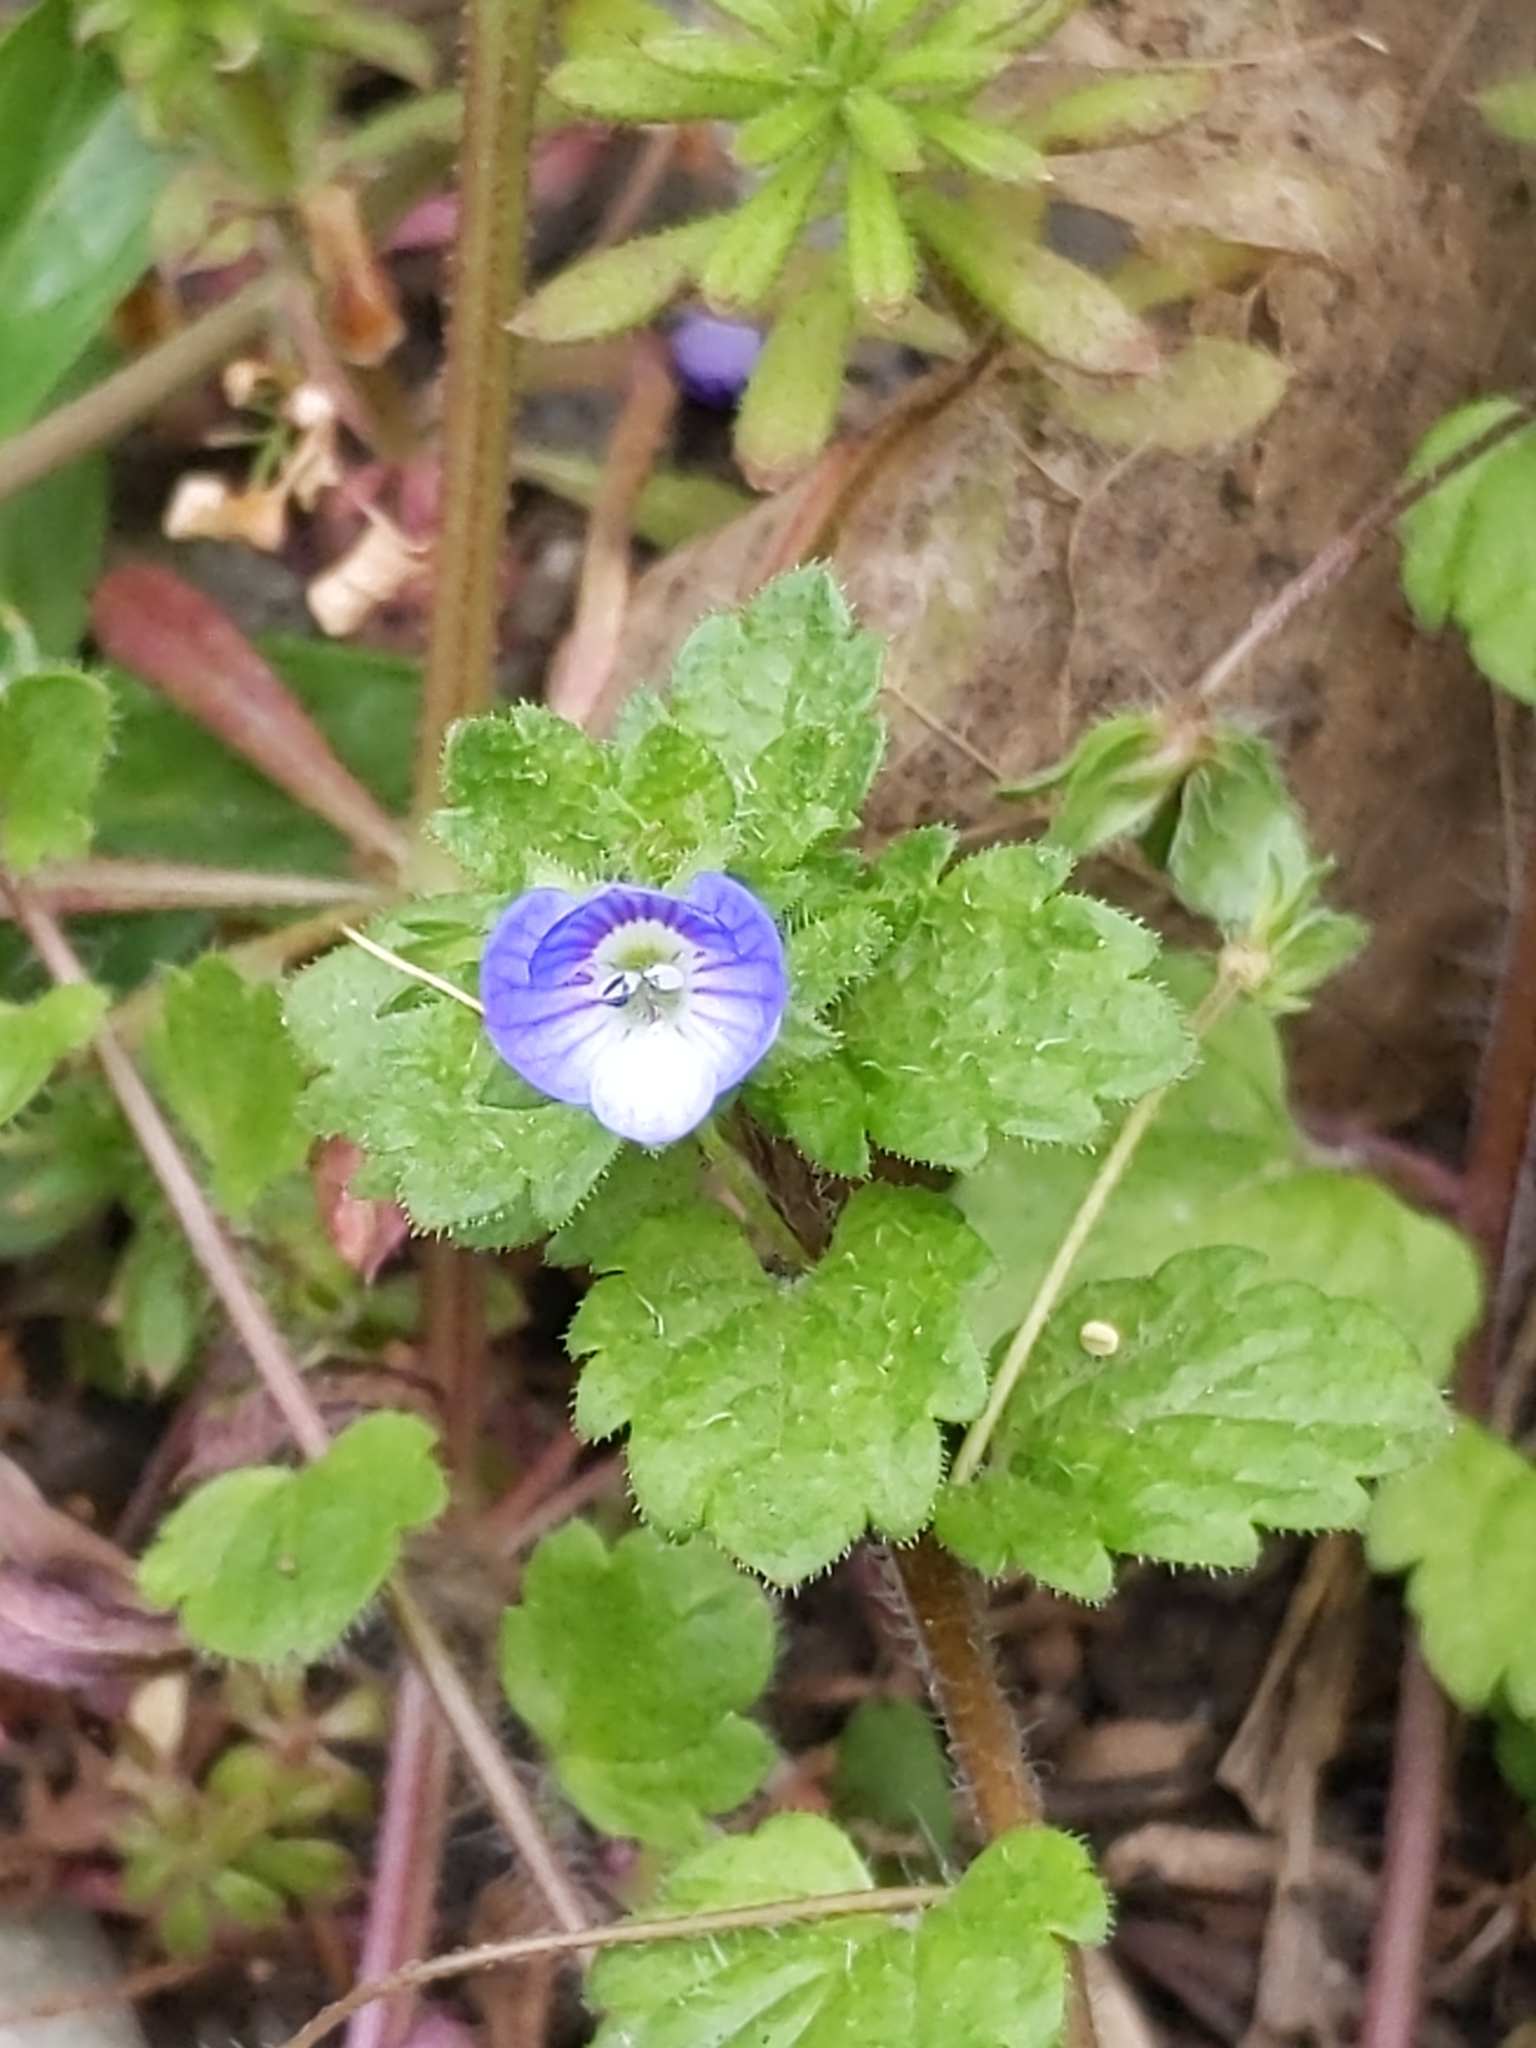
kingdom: Plantae
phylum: Tracheophyta
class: Magnoliopsida
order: Lamiales
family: Plantaginaceae
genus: Veronica
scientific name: Veronica persica
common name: Common field-speedwell
